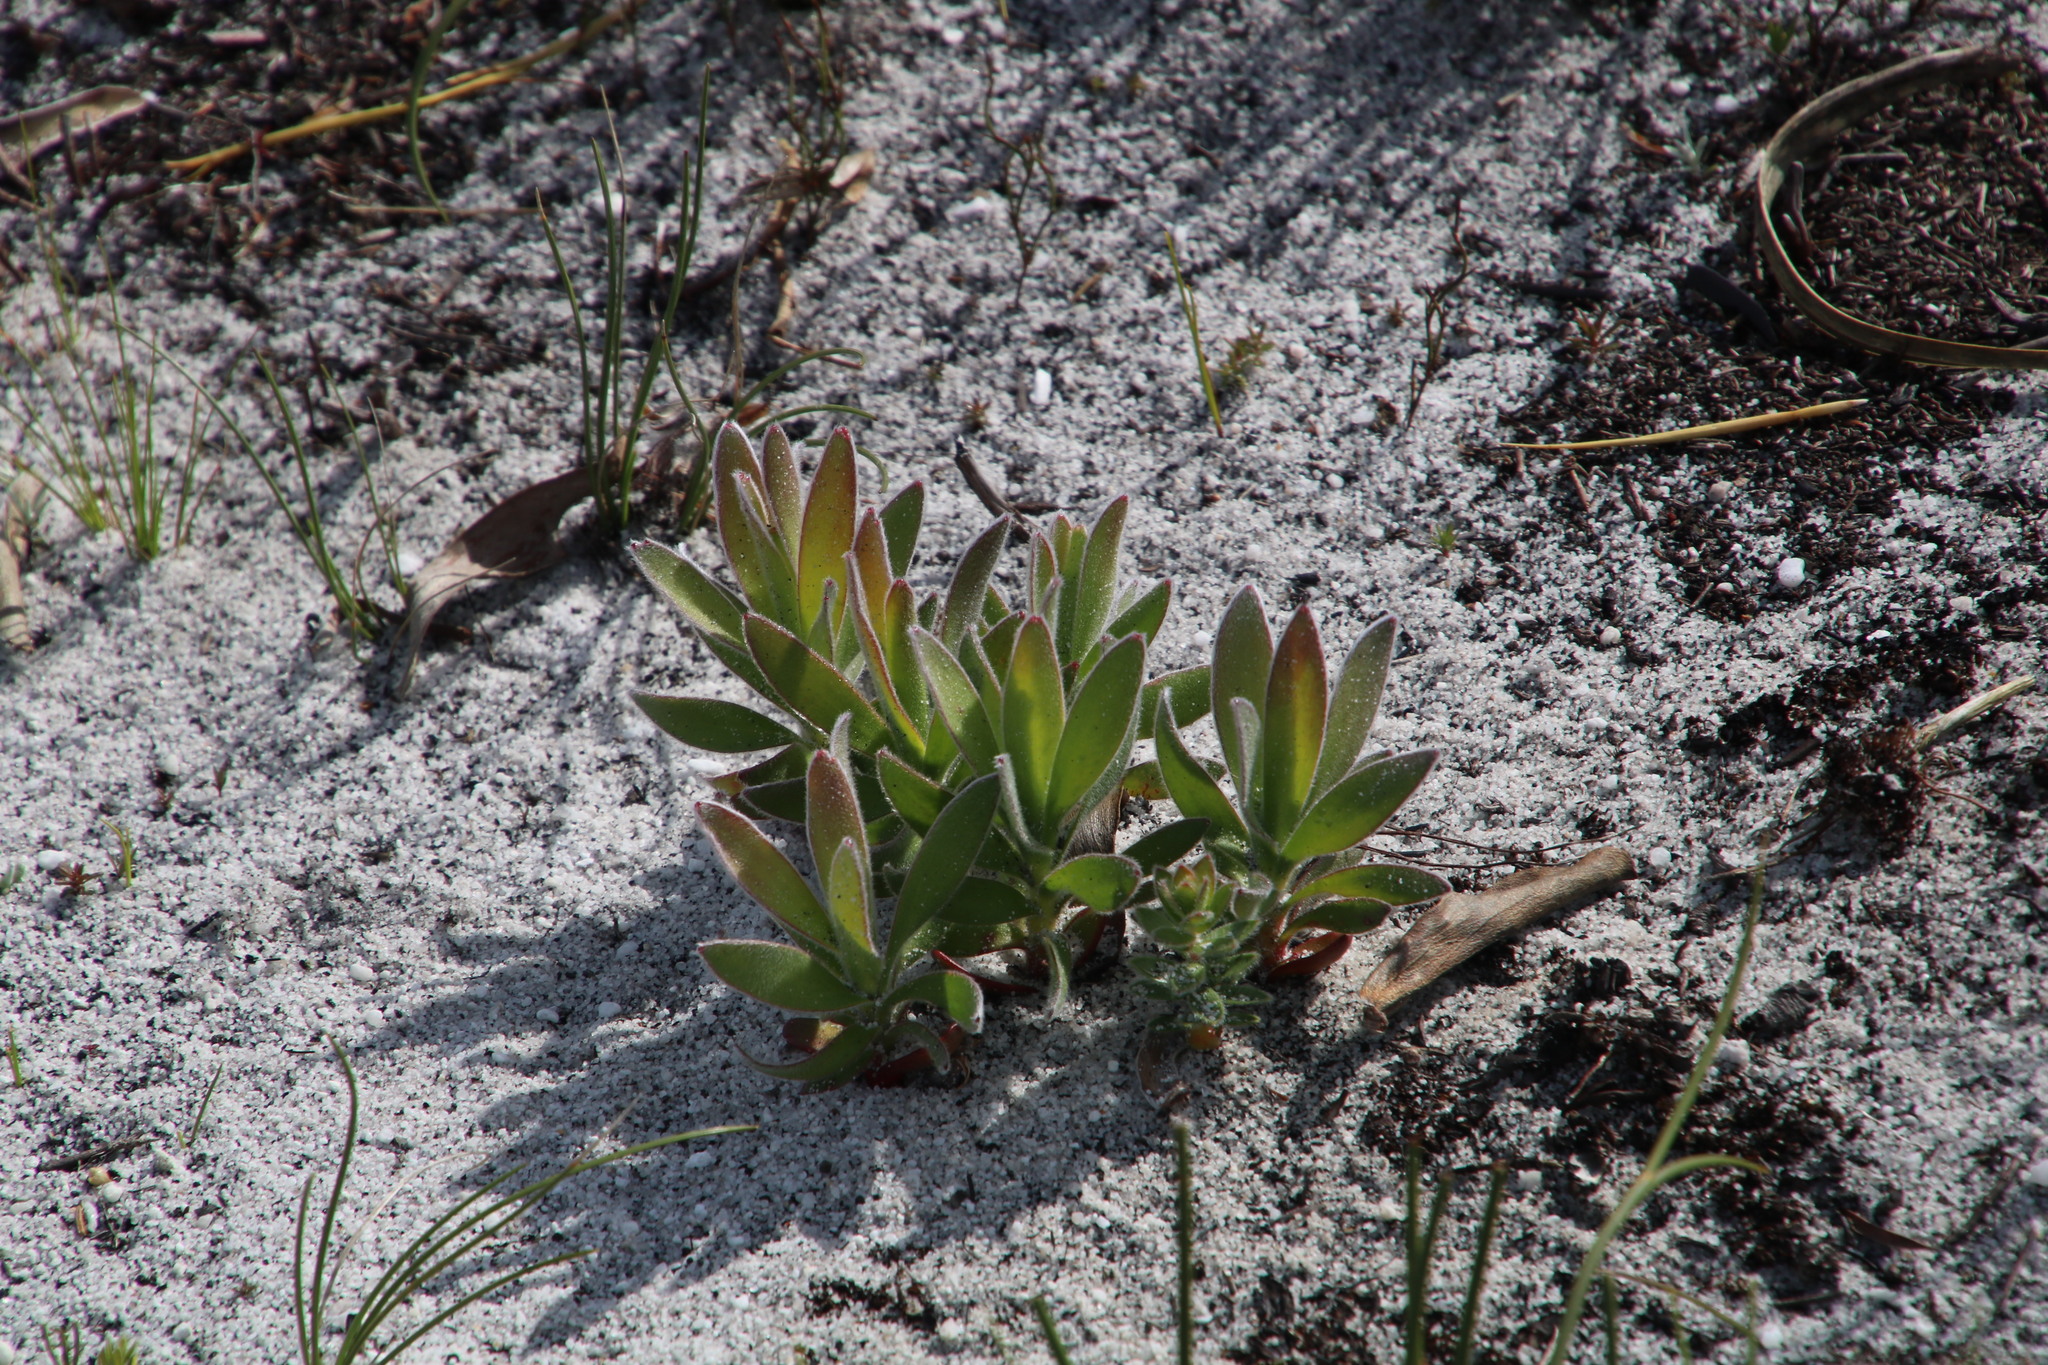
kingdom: Plantae
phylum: Tracheophyta
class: Magnoliopsida
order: Proteales
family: Proteaceae
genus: Mimetes
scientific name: Mimetes fimbriifolius
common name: Fringed bottlebrush
